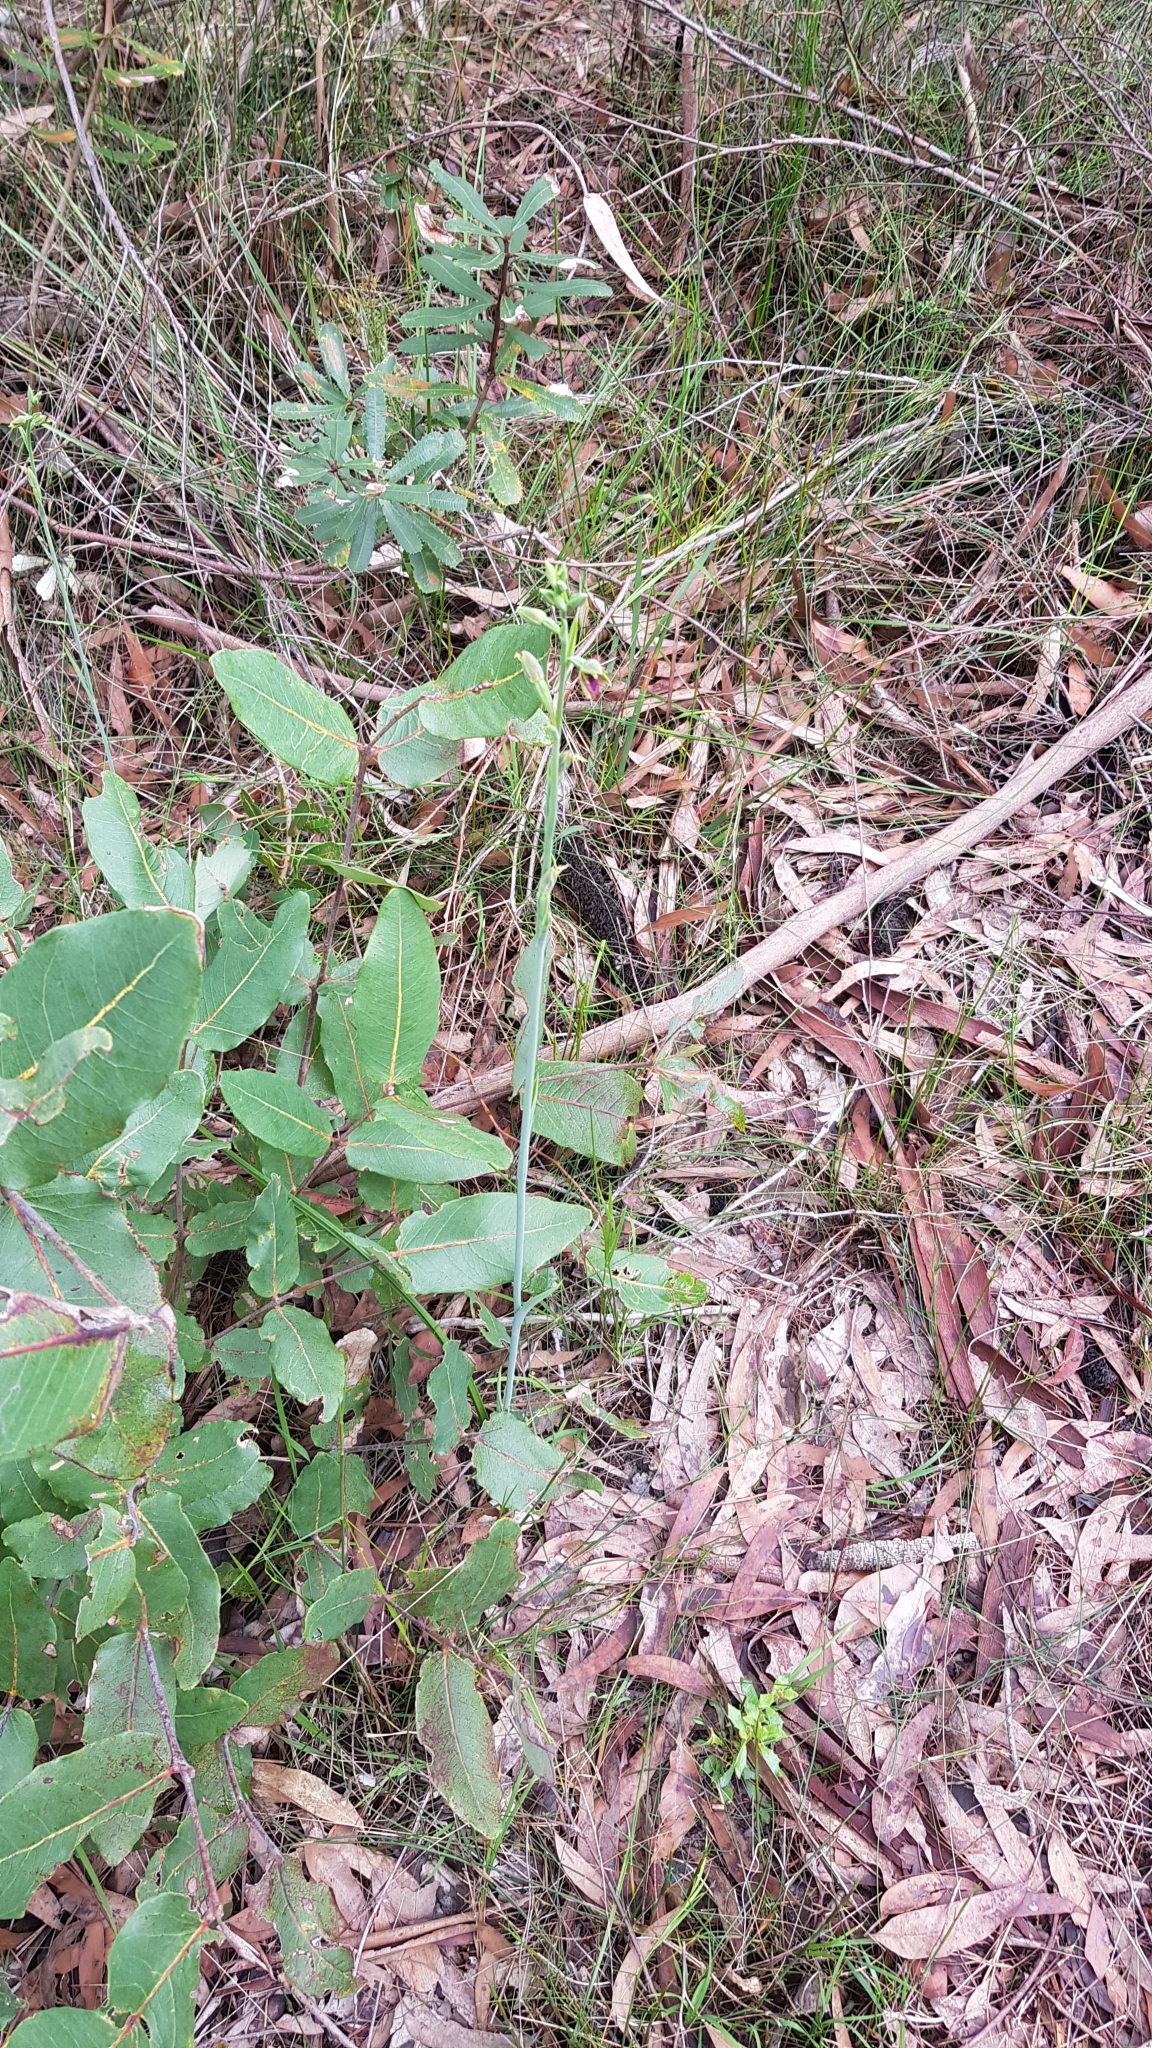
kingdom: Plantae
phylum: Tracheophyta
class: Liliopsida
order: Asparagales
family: Orchidaceae
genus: Calochilus
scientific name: Calochilus campestris
